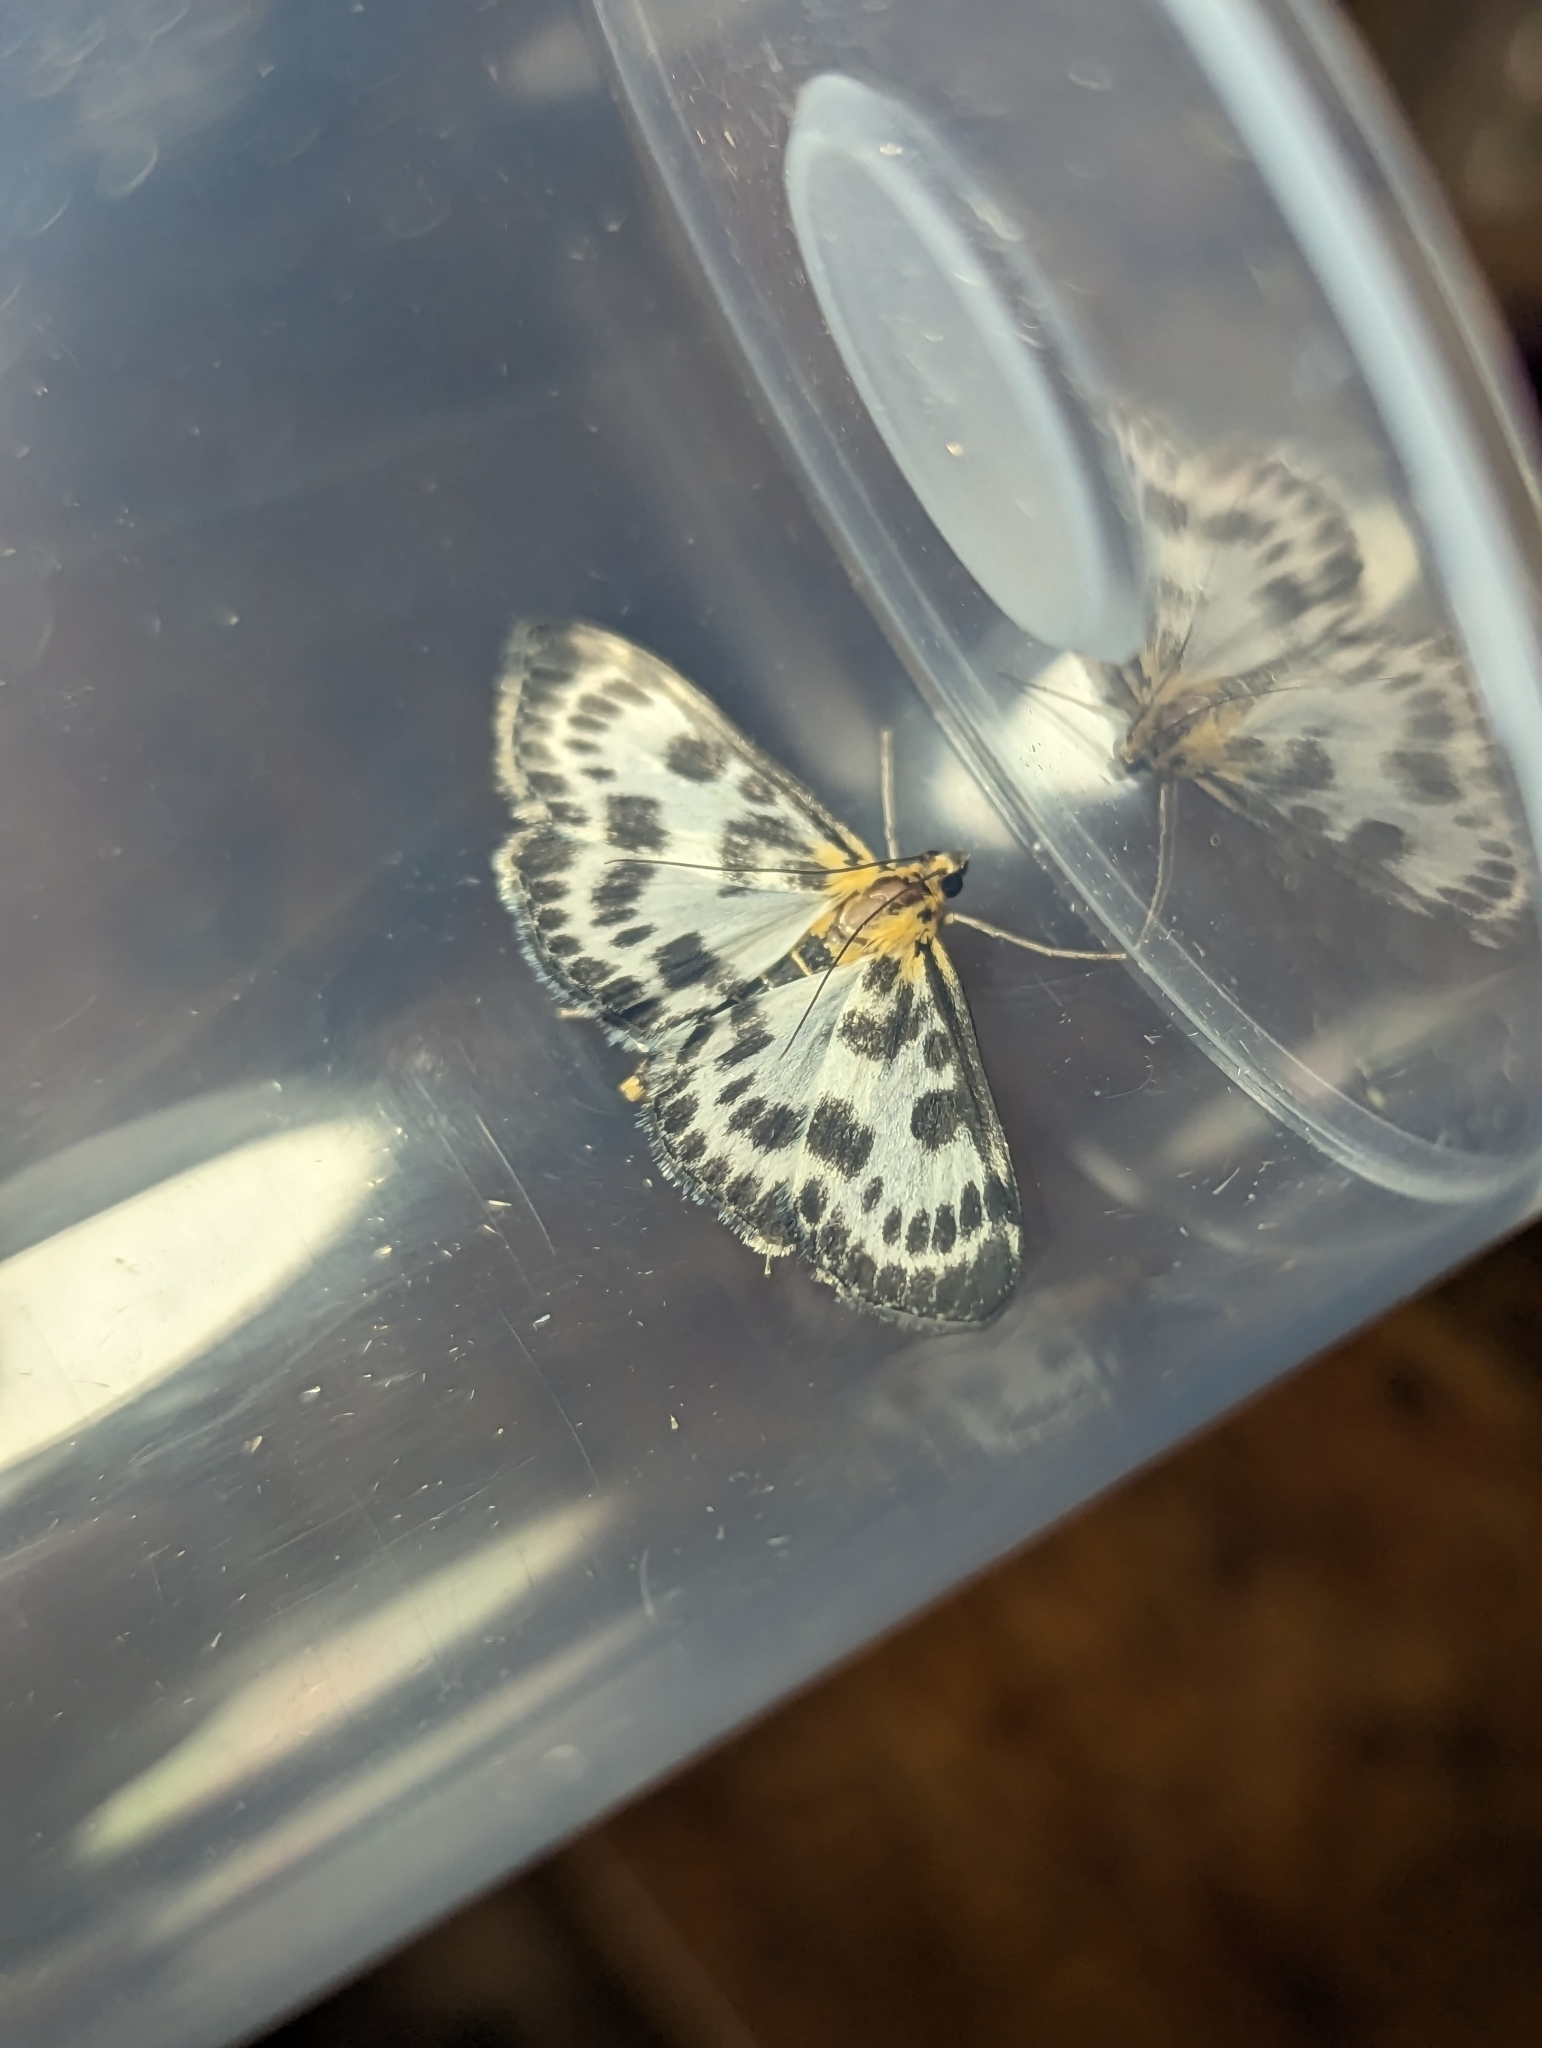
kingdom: Animalia
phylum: Arthropoda
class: Insecta
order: Lepidoptera
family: Crambidae
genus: Anania
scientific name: Anania hortulata
